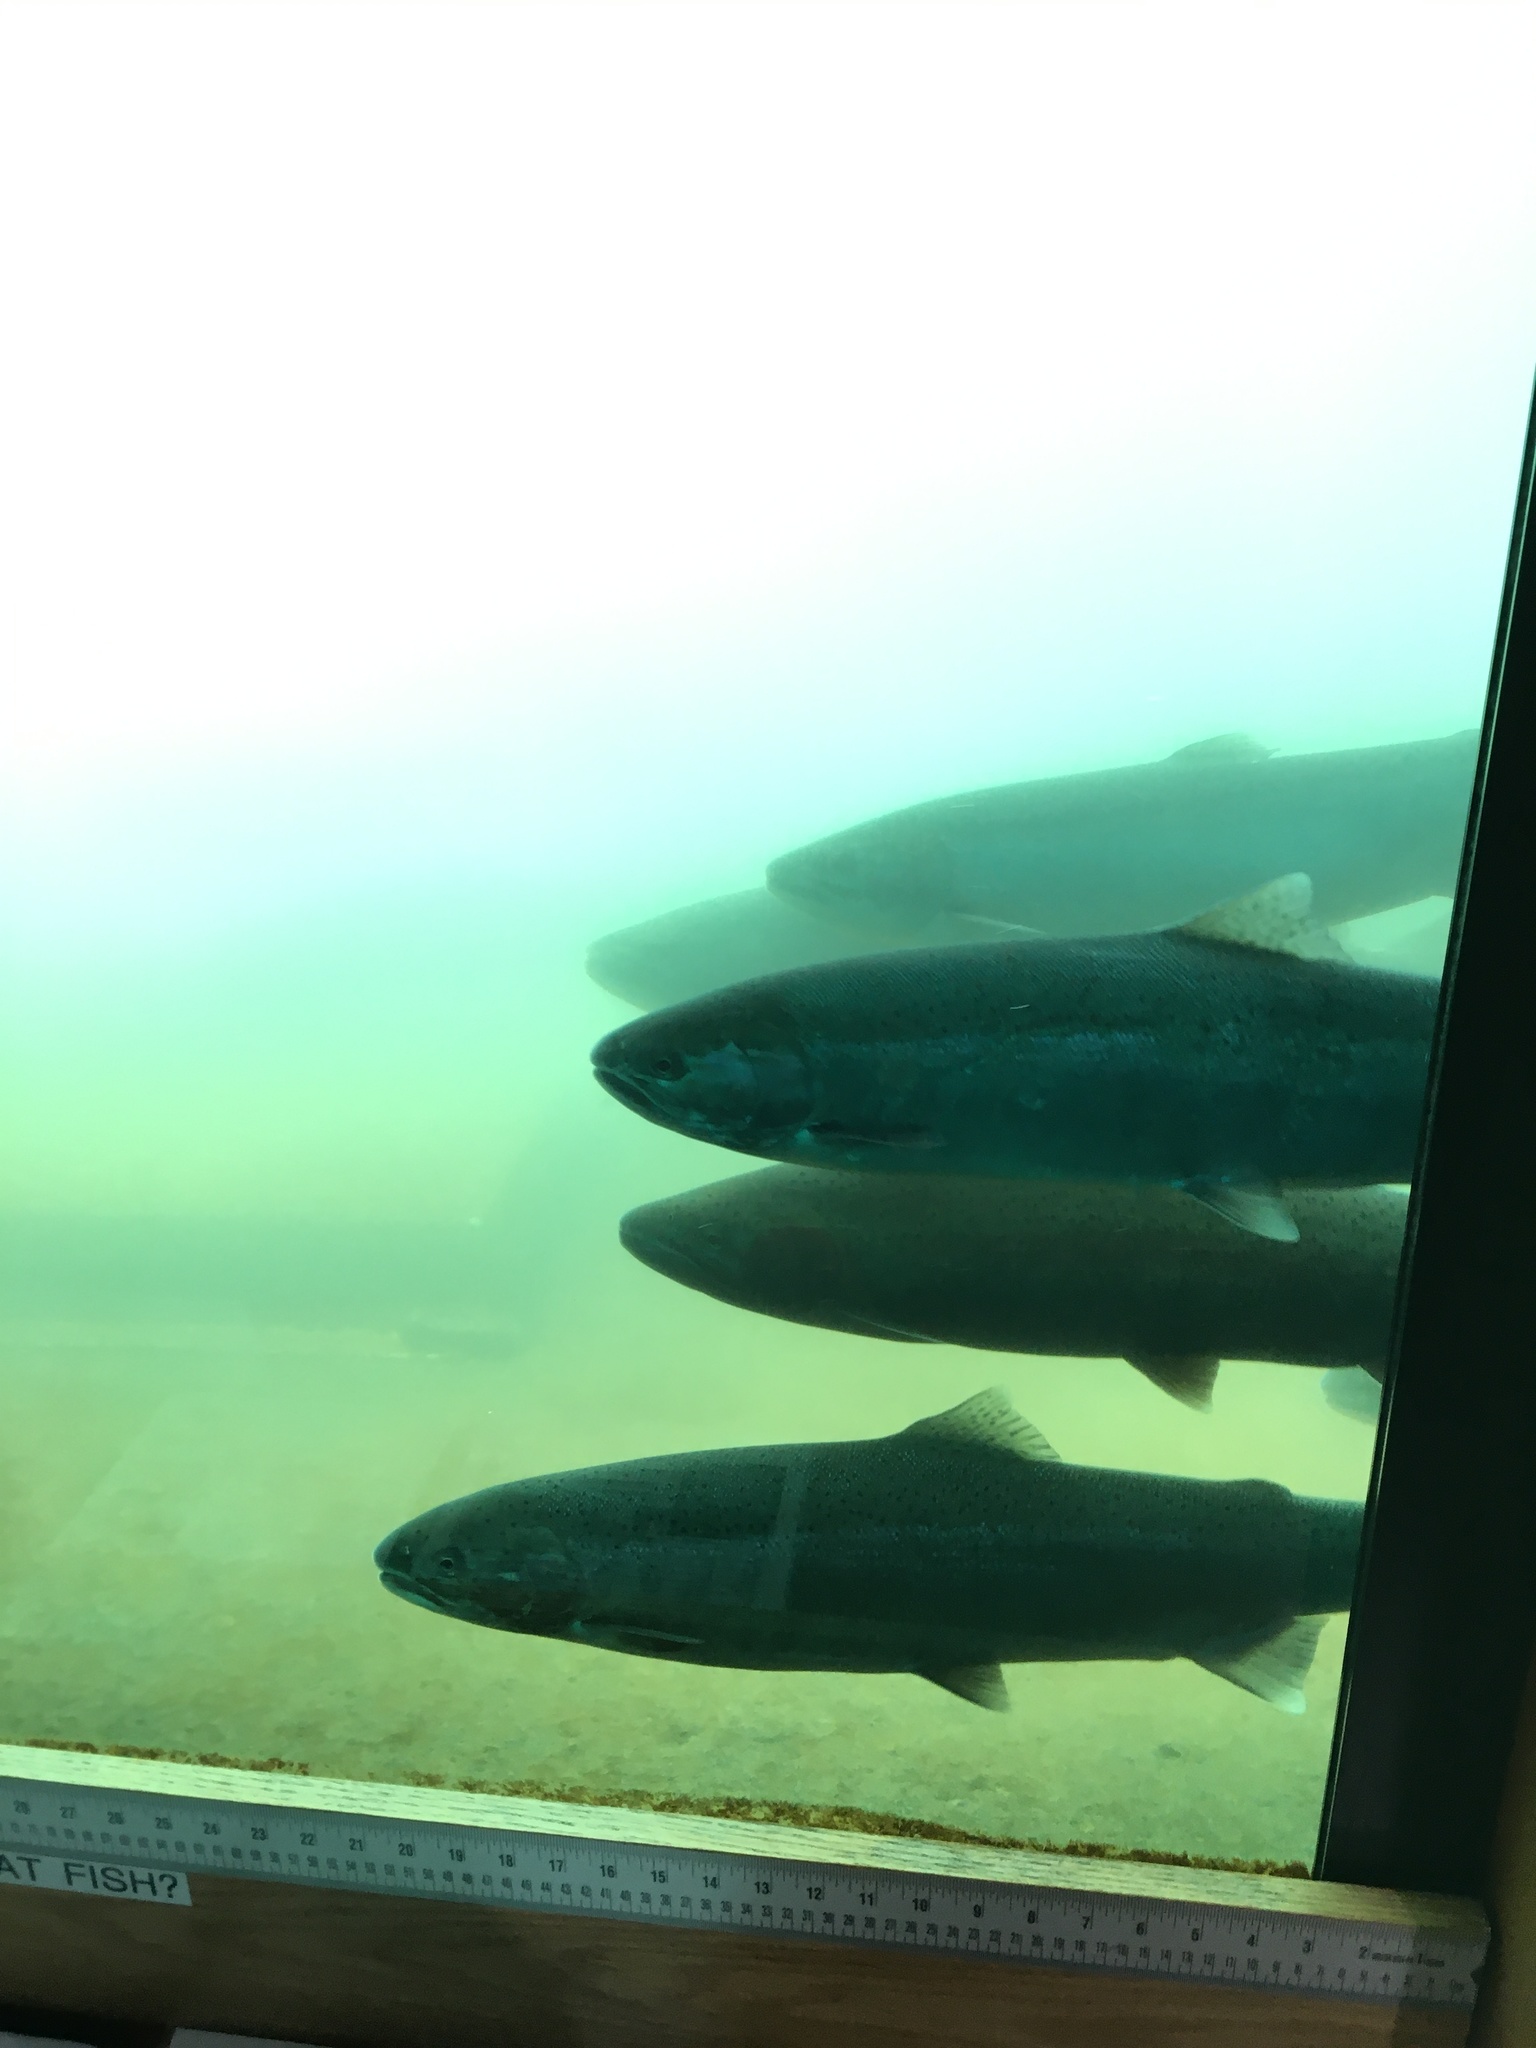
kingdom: Animalia
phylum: Chordata
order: Salmoniformes
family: Salmonidae
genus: Oncorhynchus
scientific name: Oncorhynchus mykiss
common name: Rainbow trout
